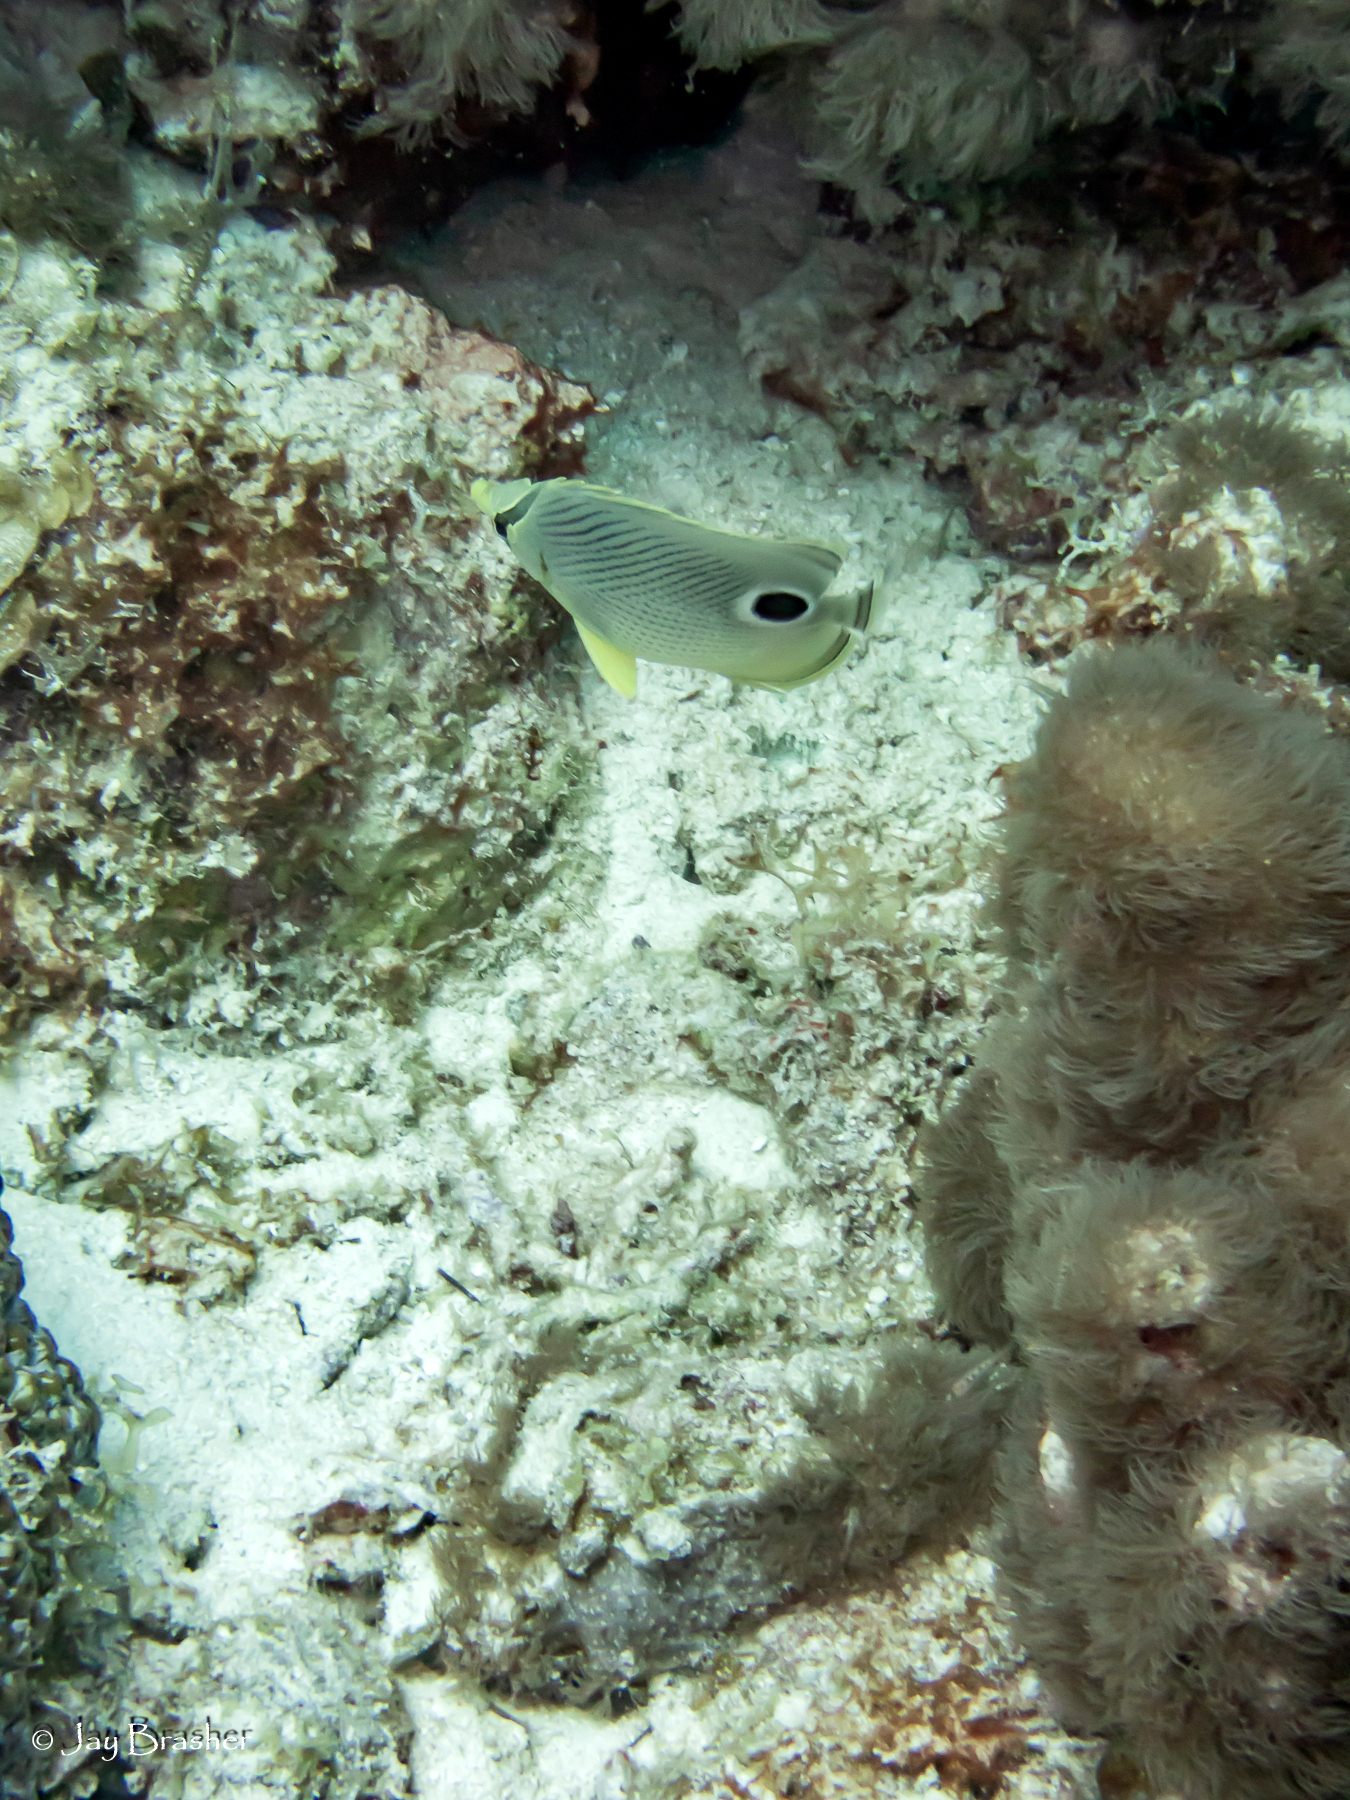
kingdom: Animalia
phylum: Chordata
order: Perciformes
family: Chaetodontidae
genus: Chaetodon
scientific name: Chaetodon capistratus
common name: Kete
